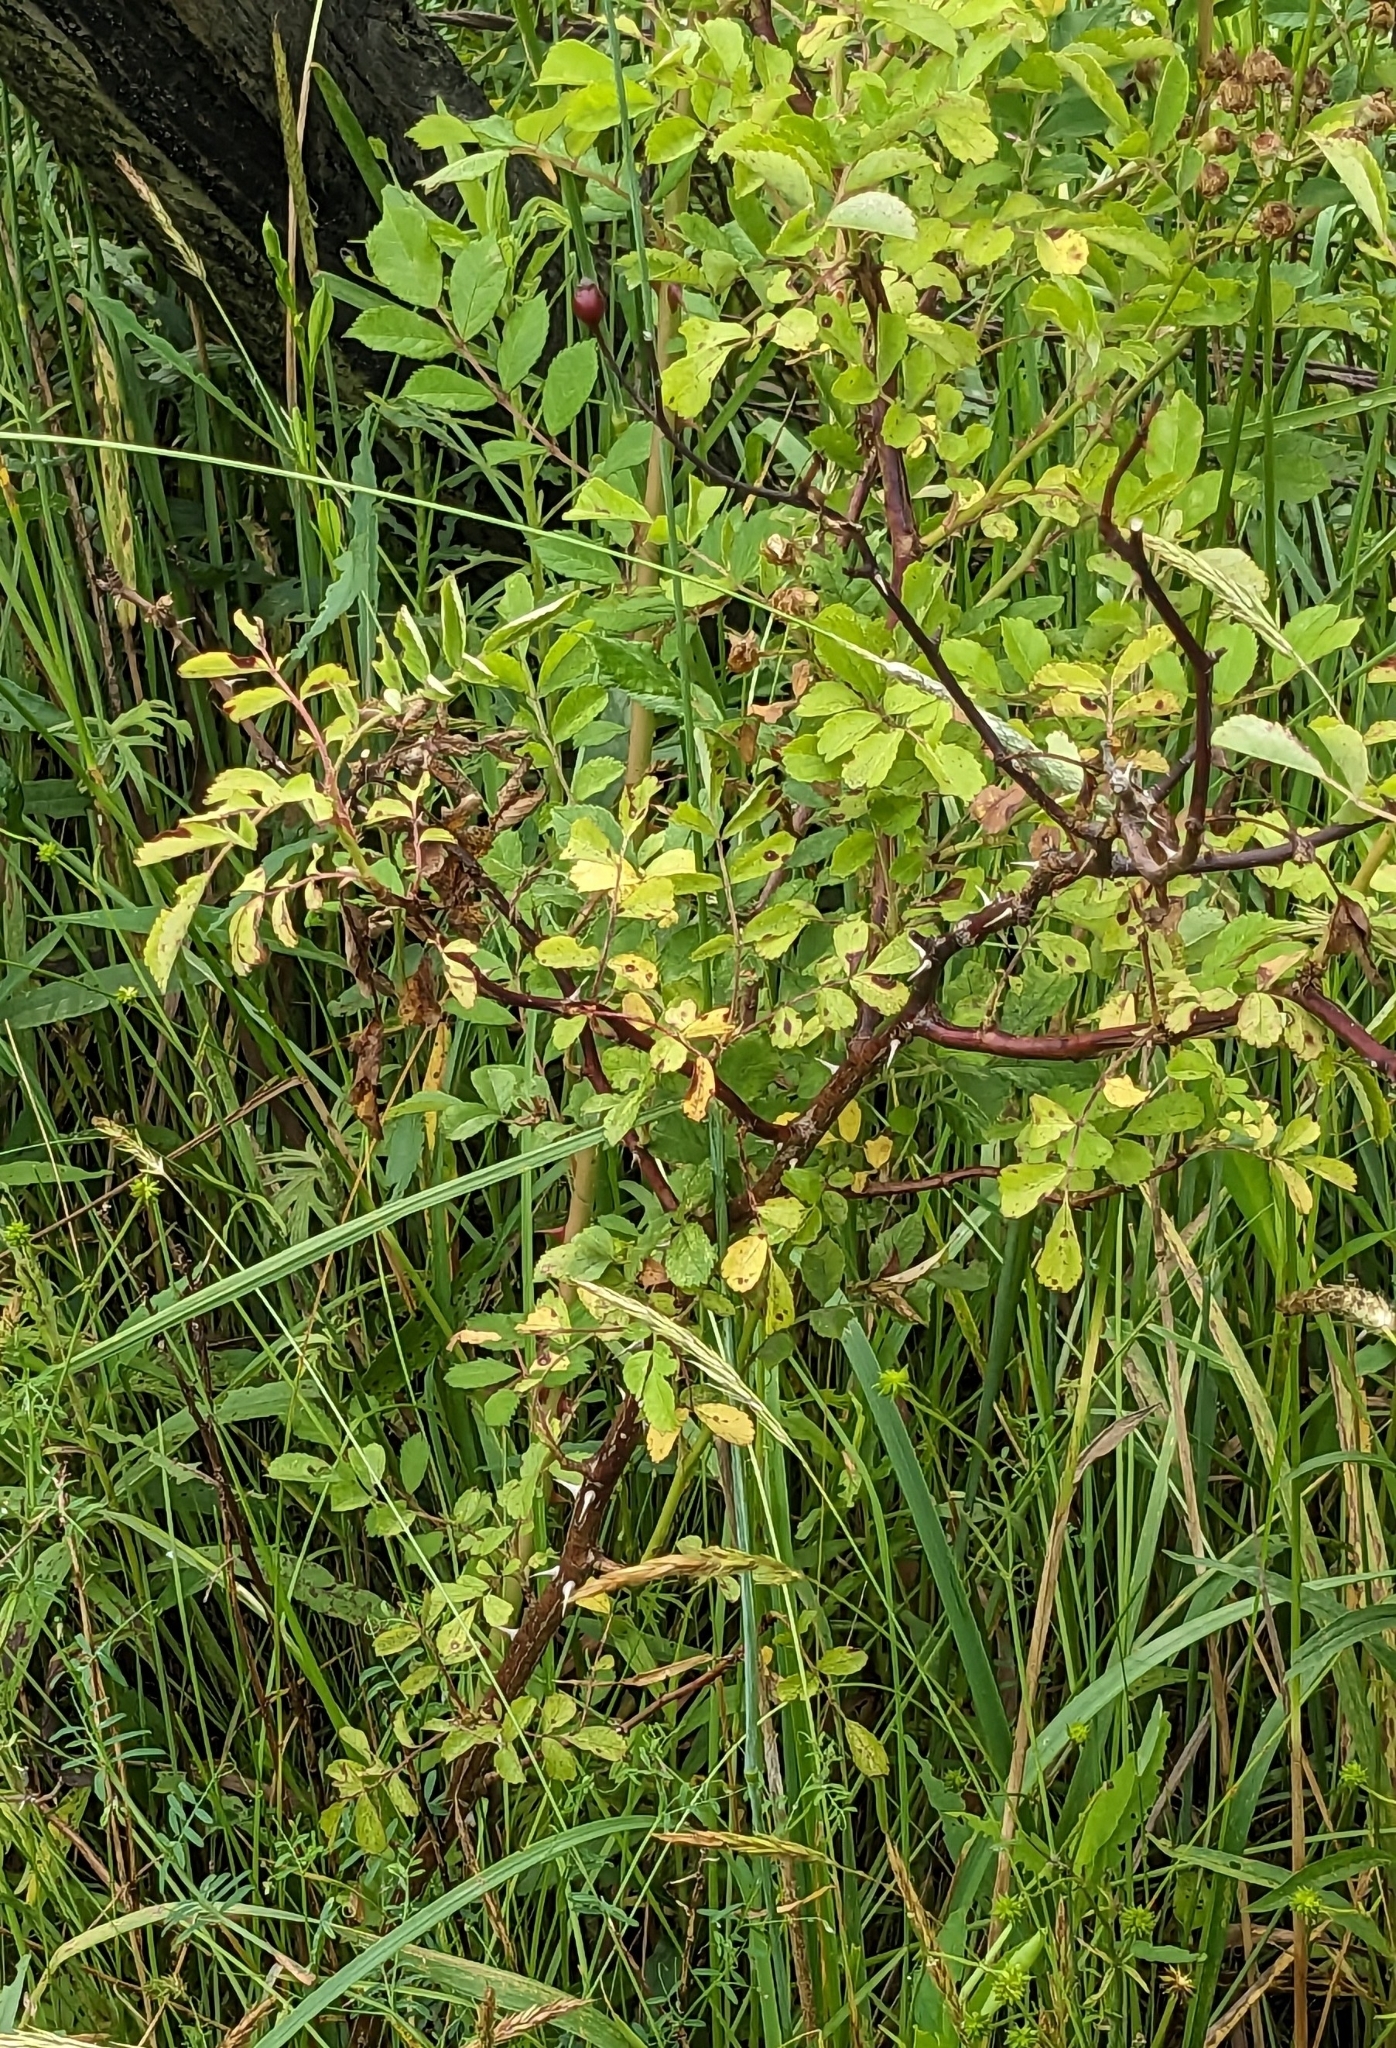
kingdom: Plantae
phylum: Tracheophyta
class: Magnoliopsida
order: Rosales
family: Rosaceae
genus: Rosa
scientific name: Rosa multiflora
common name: Multiflora rose
